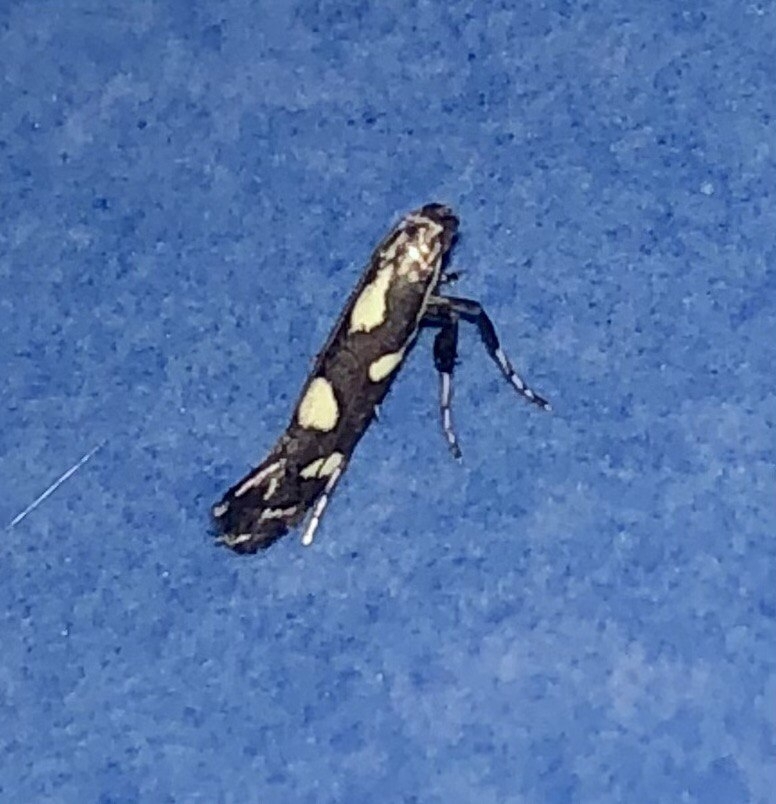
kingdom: Animalia
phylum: Arthropoda
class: Insecta
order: Lepidoptera
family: Gracillariidae
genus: Calybites
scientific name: Calybites phasianipennella
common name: Little slender
